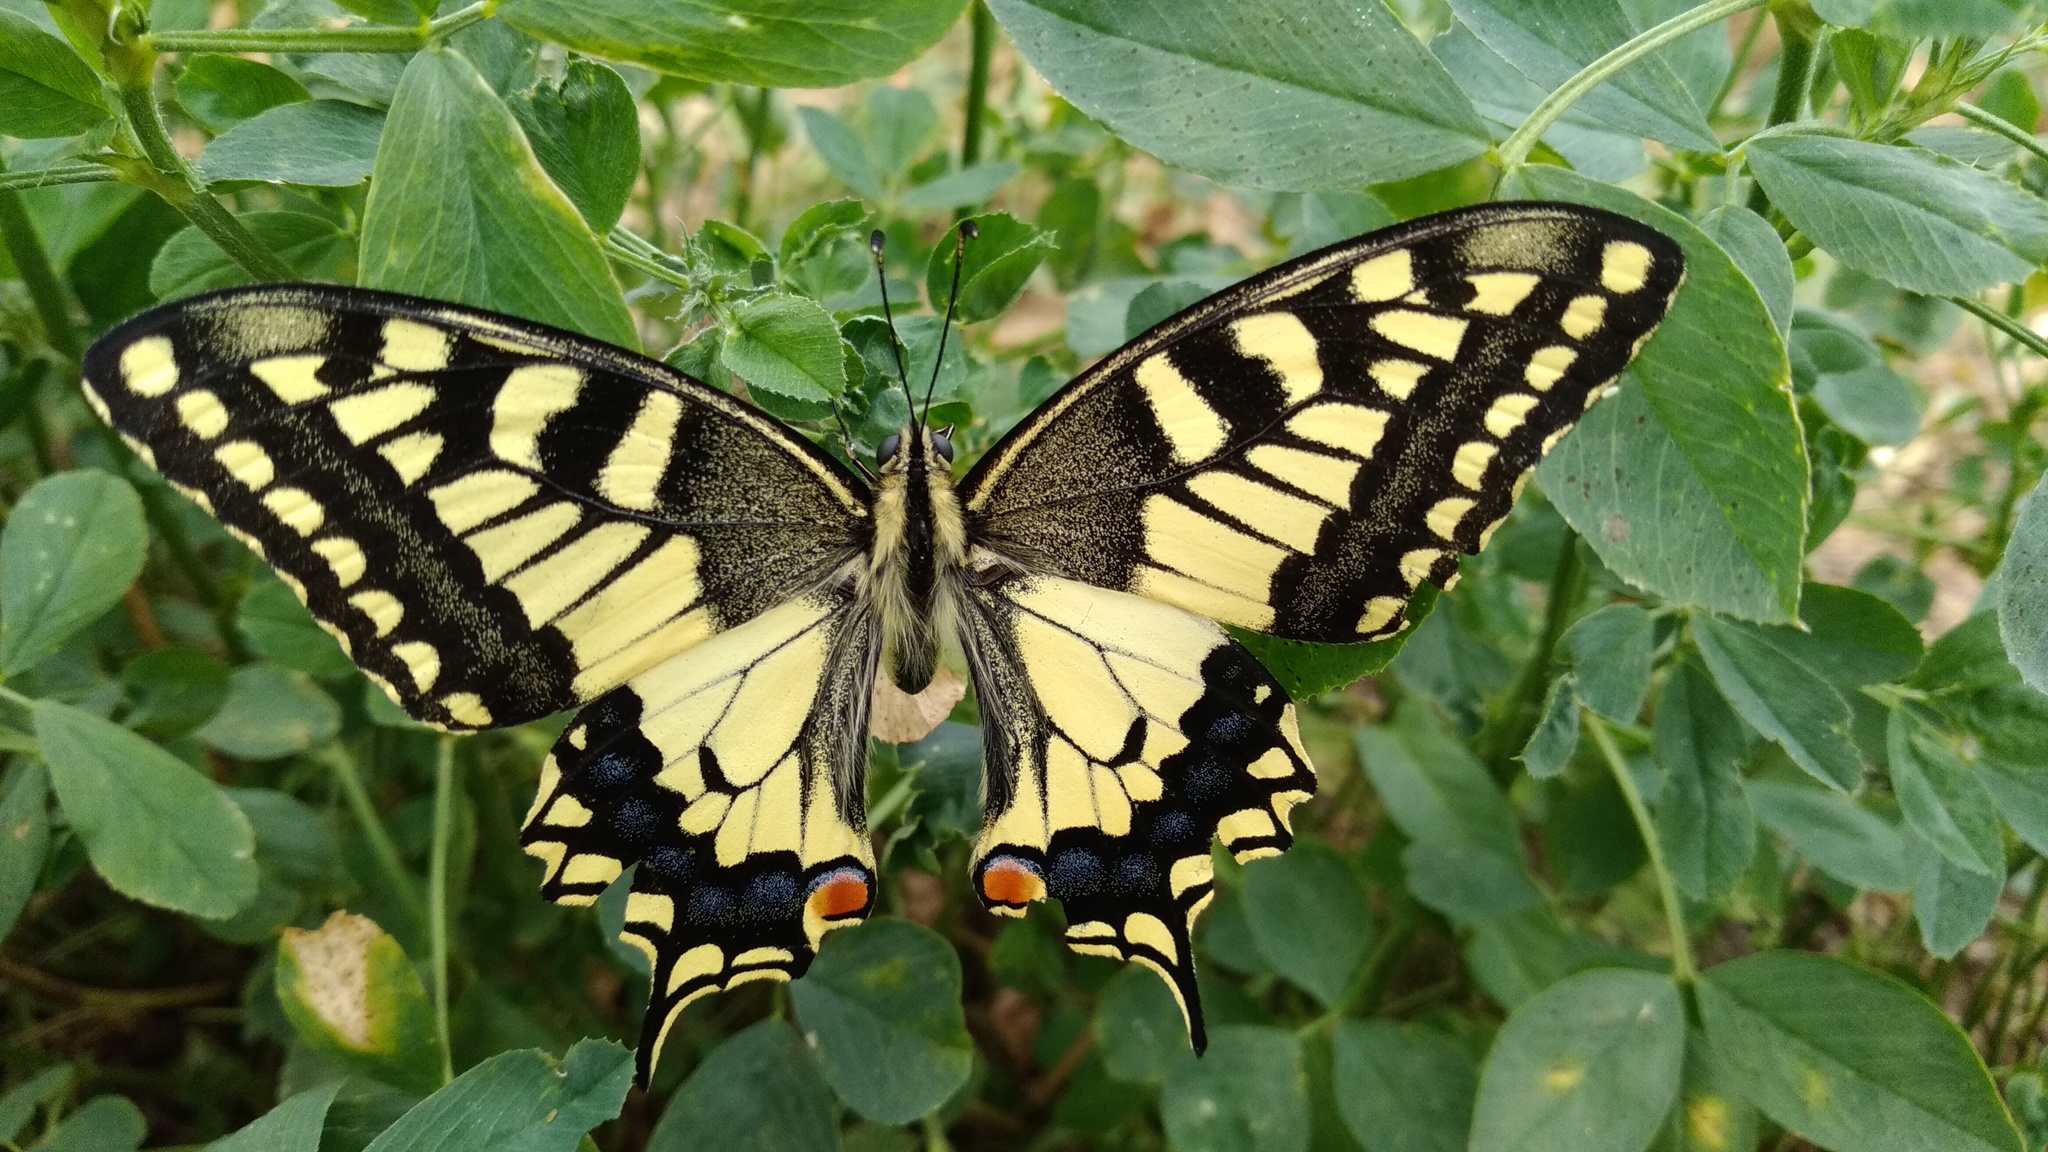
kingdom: Animalia
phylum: Arthropoda
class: Insecta
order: Lepidoptera
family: Papilionidae
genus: Papilio
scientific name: Papilio machaon
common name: Swallowtail
